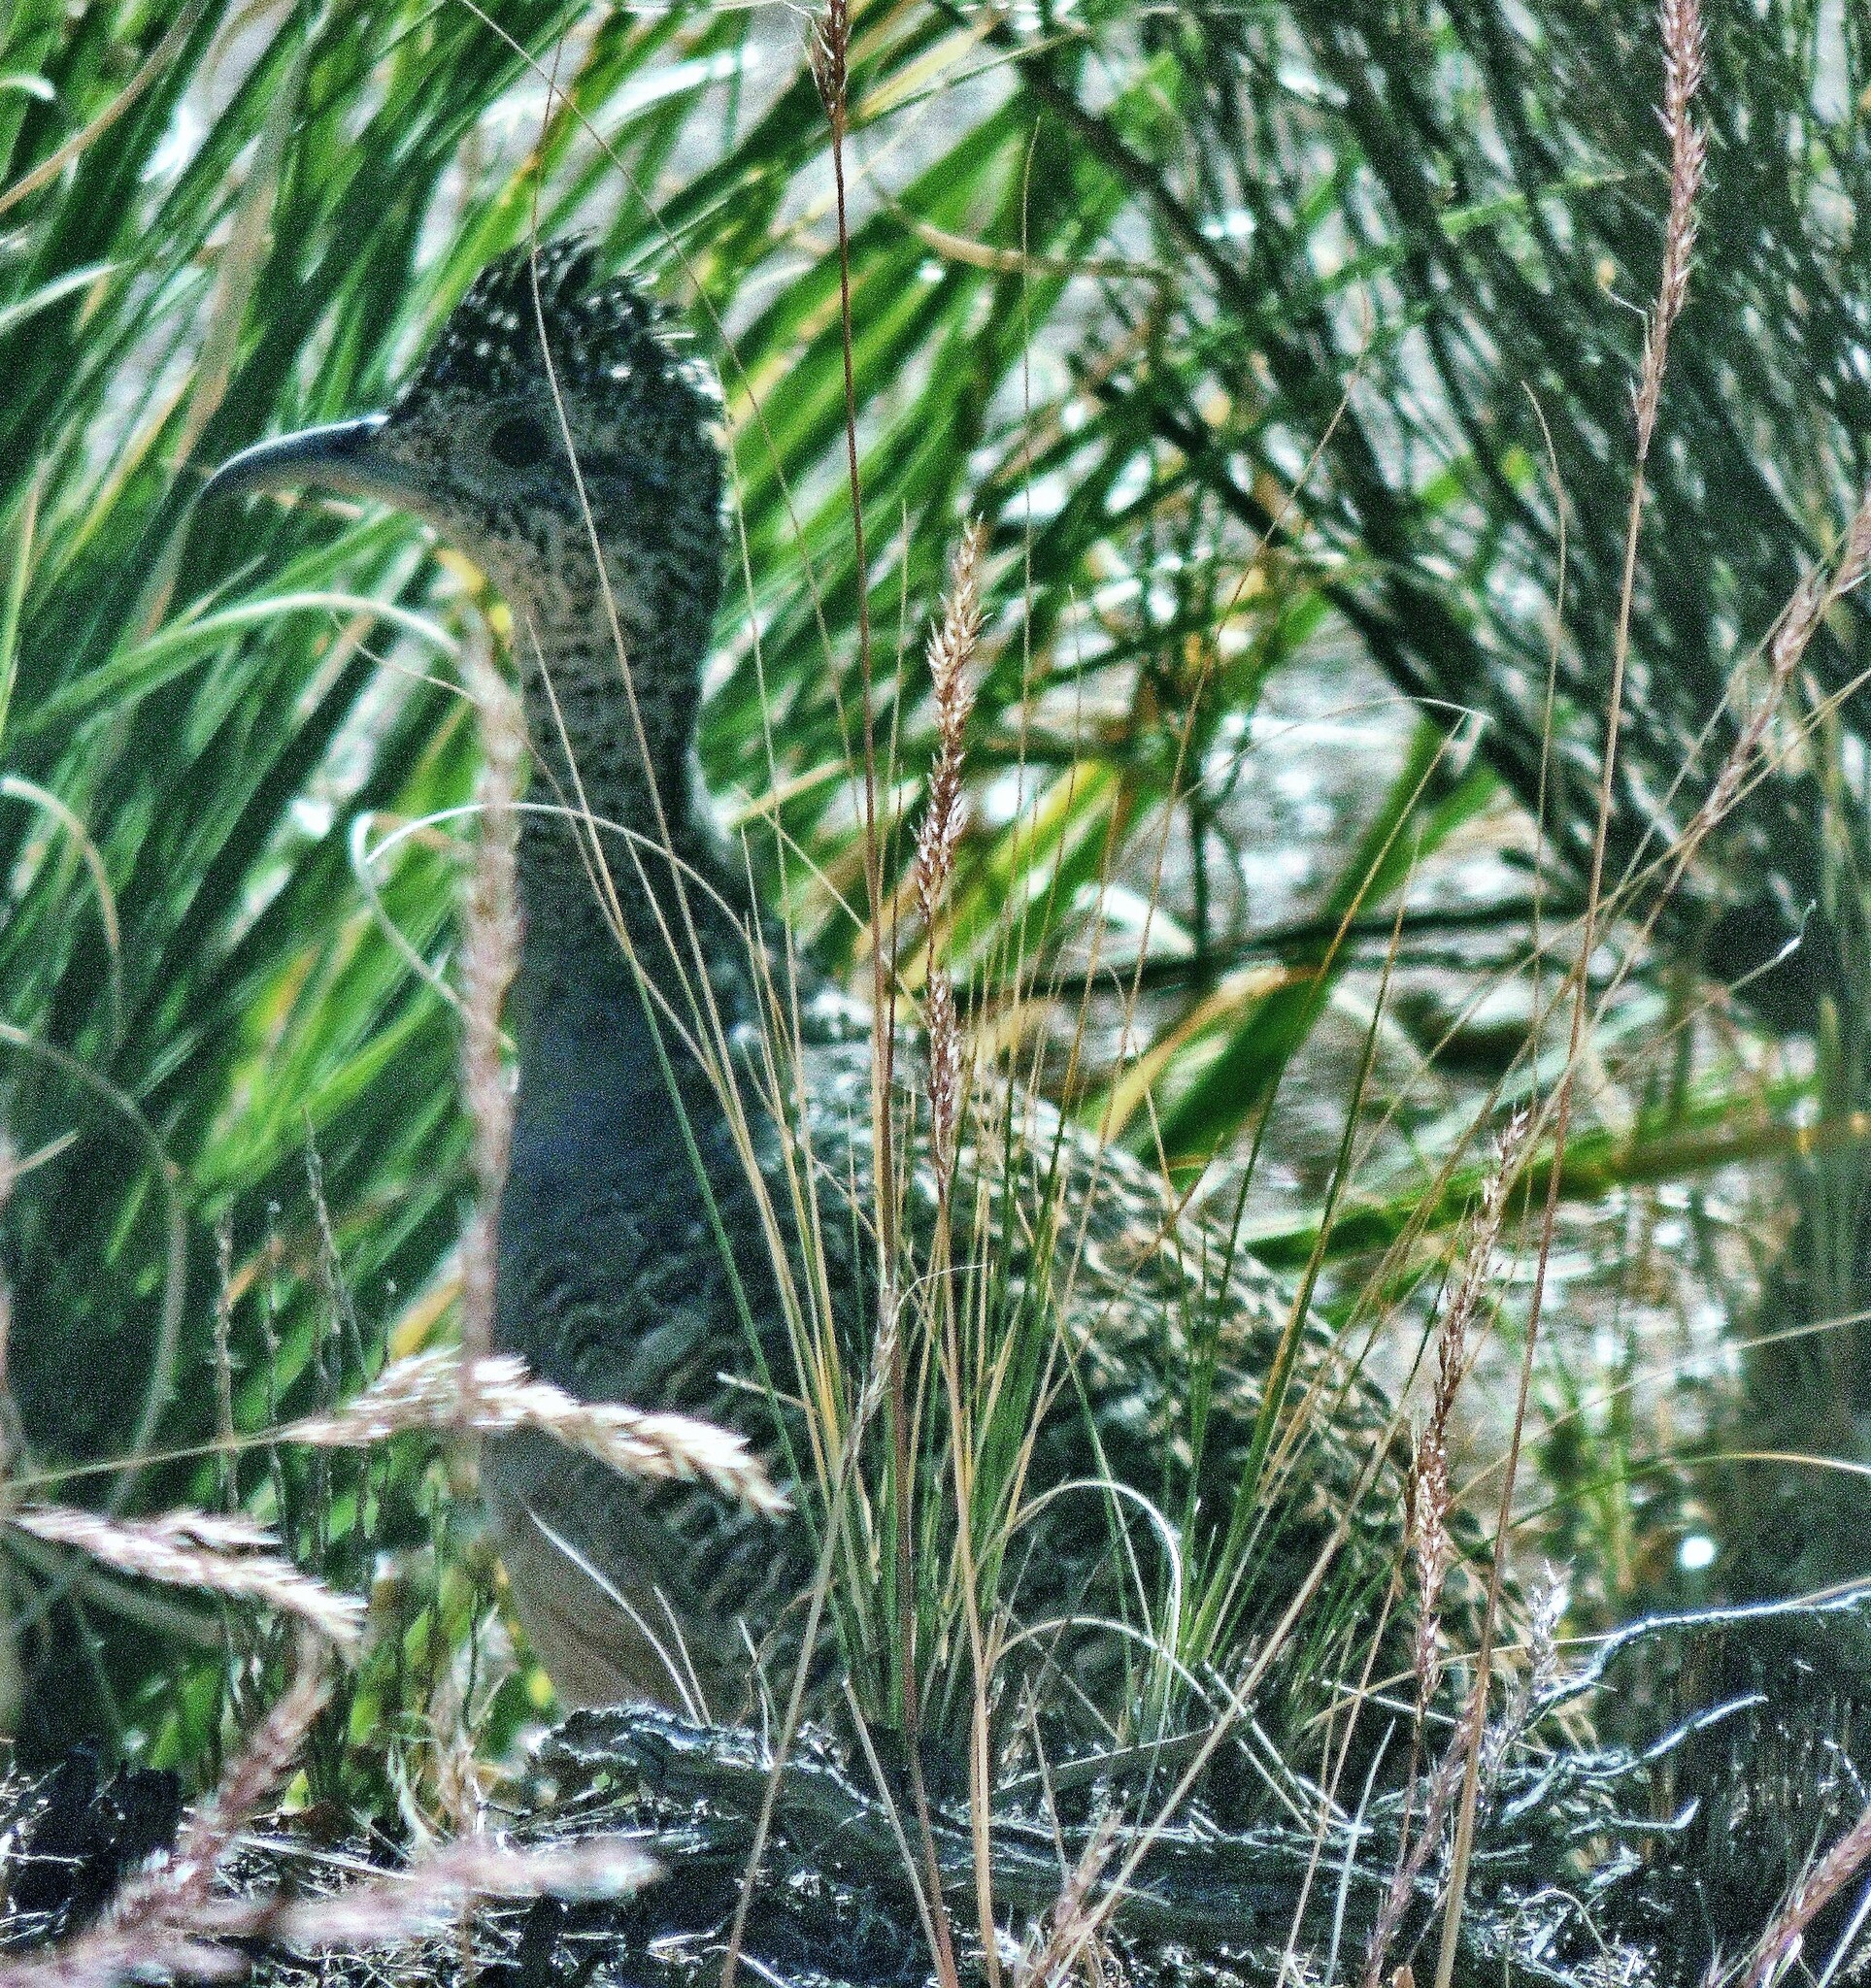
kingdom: Animalia
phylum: Chordata
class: Aves
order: Tinamiformes
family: Tinamidae
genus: Nothoprocta
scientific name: Nothoprocta ornata
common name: Ornate tinamou
